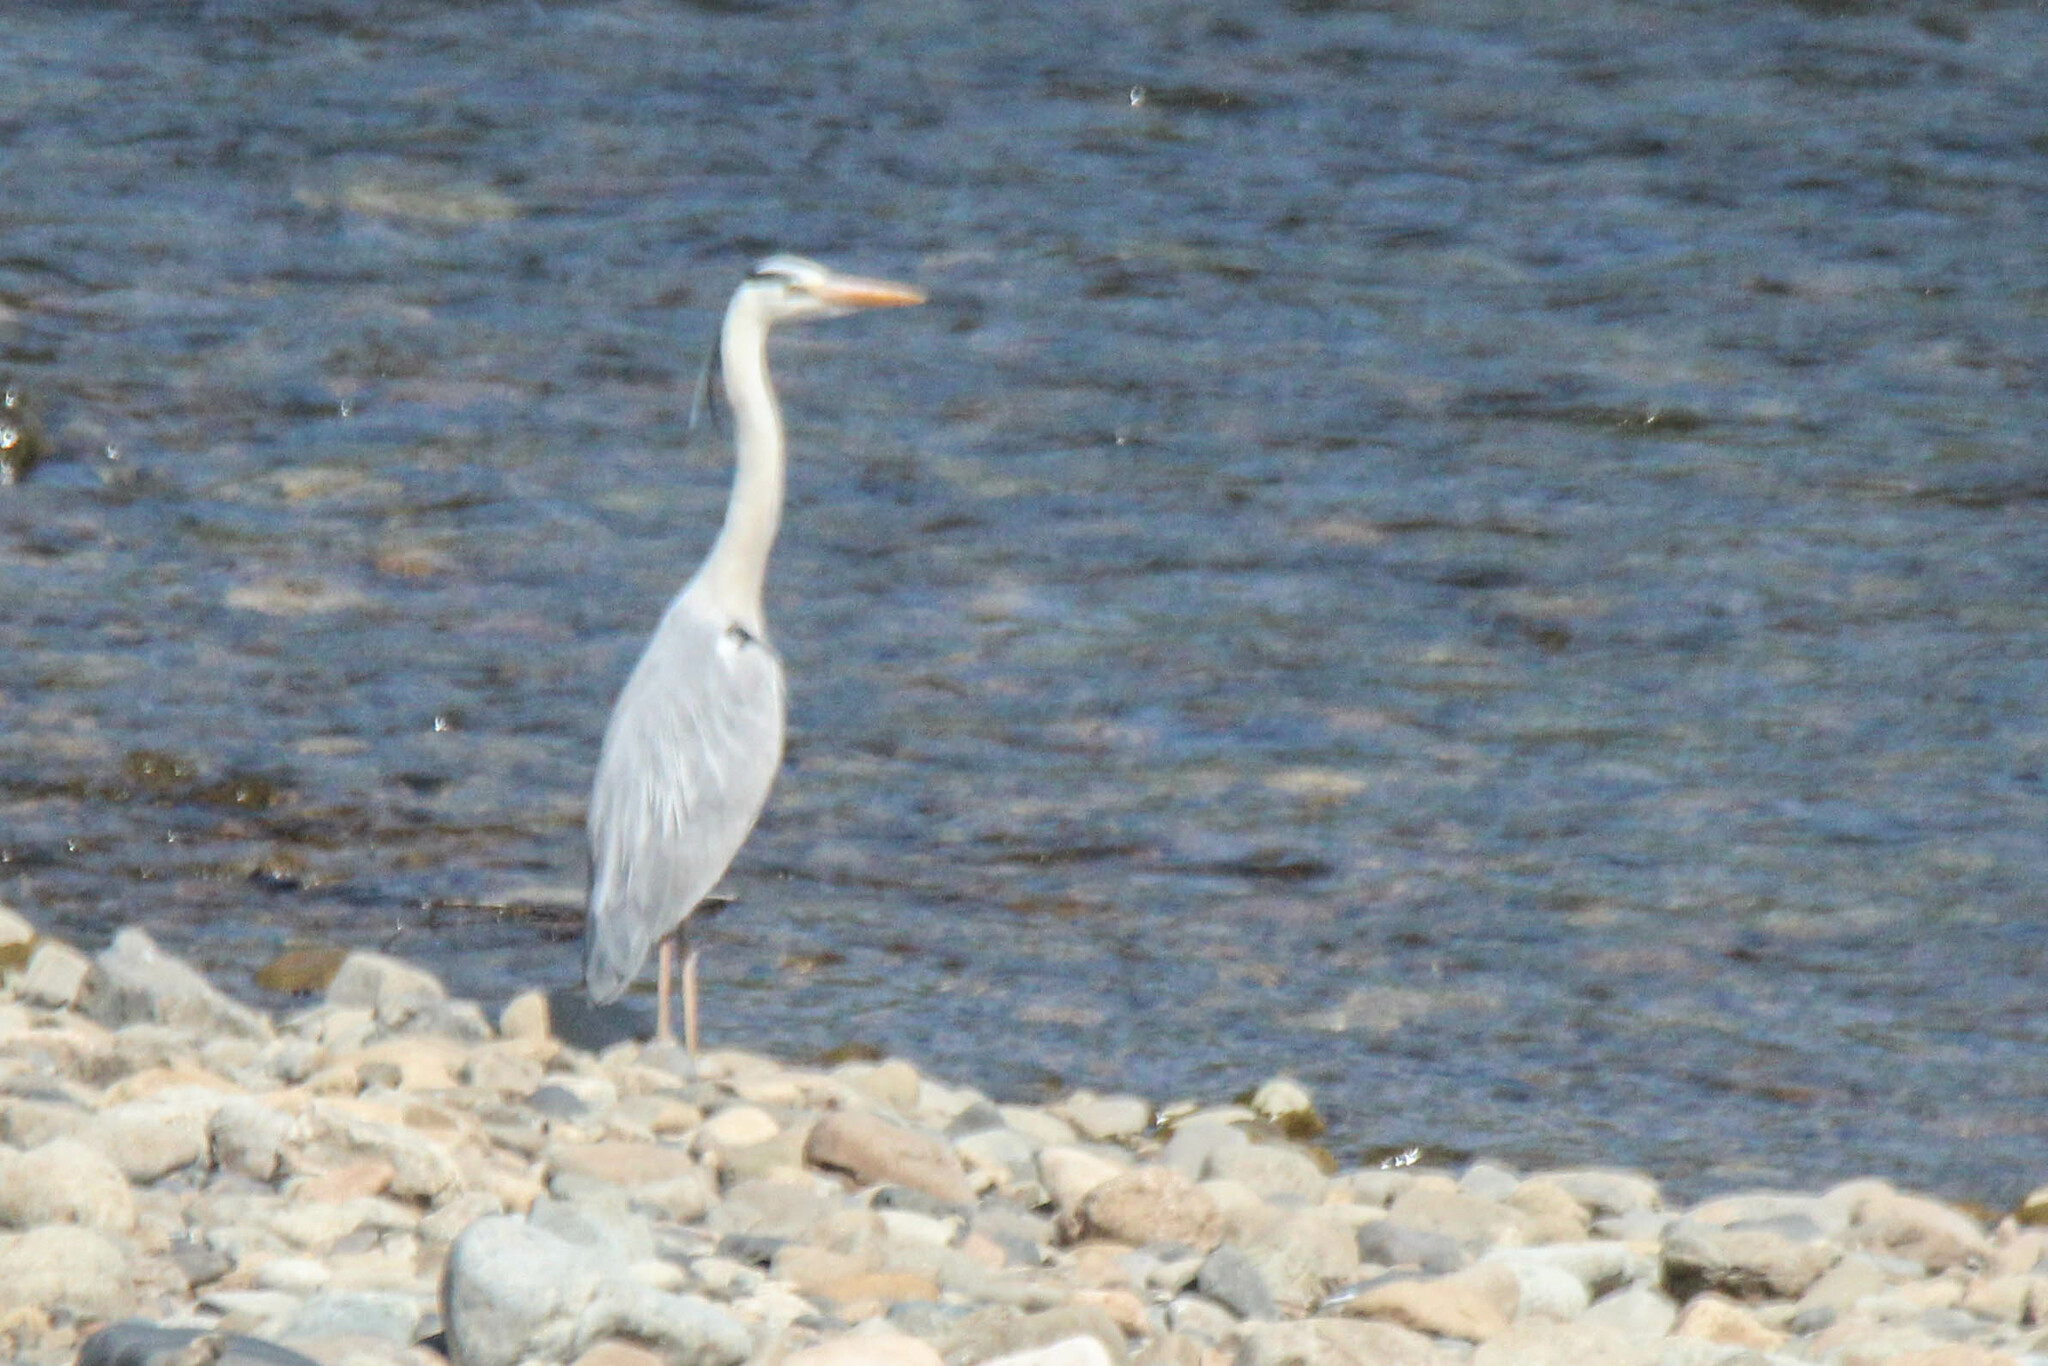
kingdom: Animalia
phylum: Chordata
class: Aves
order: Pelecaniformes
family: Ardeidae
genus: Ardea
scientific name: Ardea cinerea
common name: Grey heron
